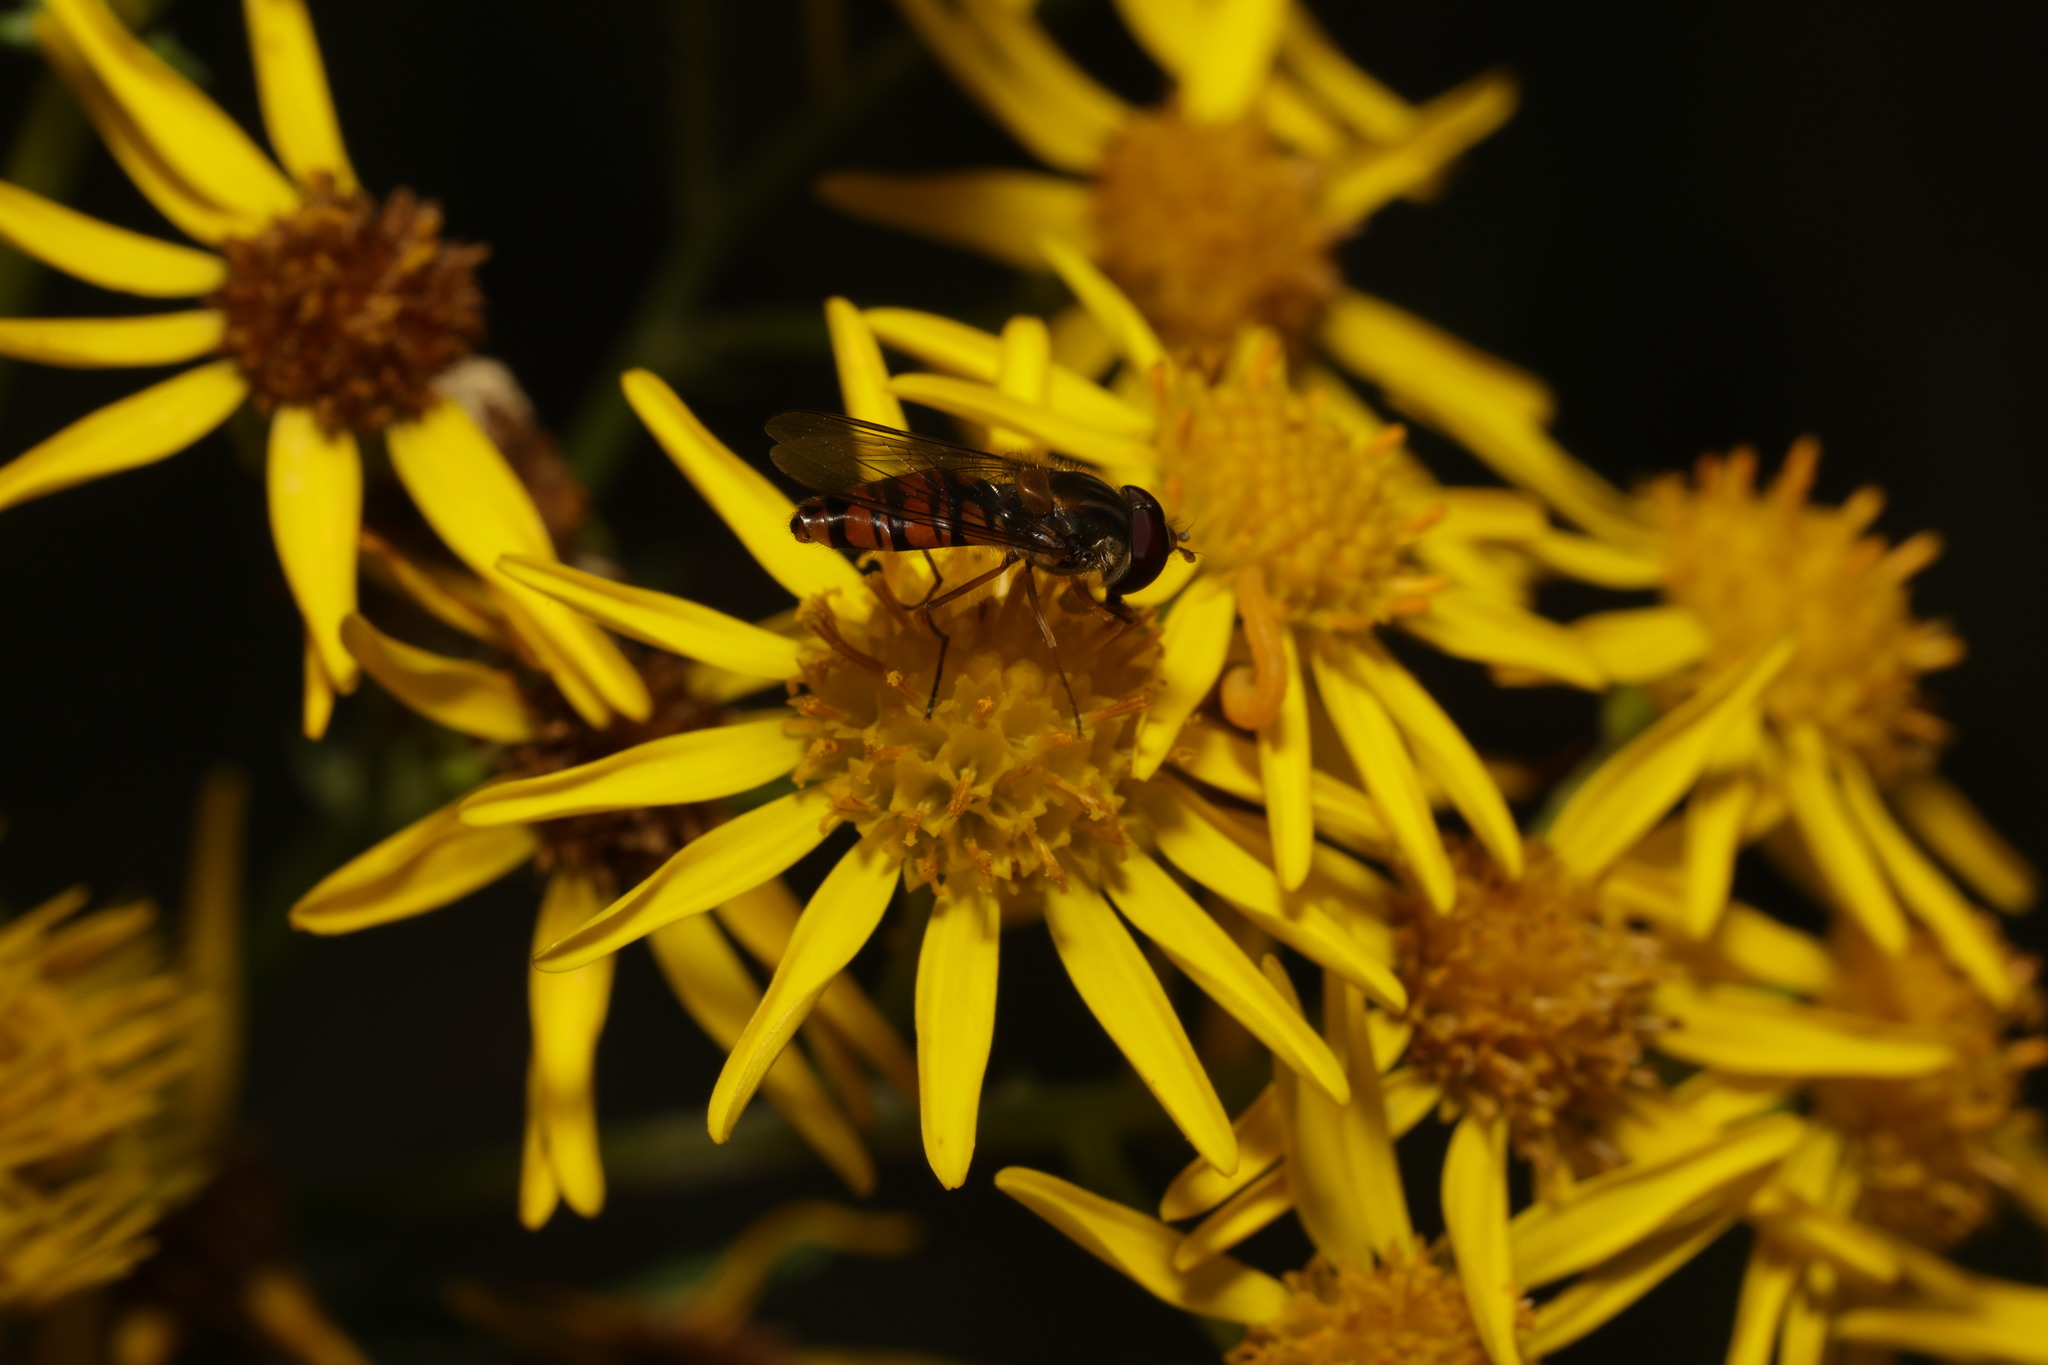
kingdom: Animalia
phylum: Arthropoda
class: Insecta
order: Diptera
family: Syrphidae
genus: Episyrphus
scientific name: Episyrphus balteatus
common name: Marmalade hoverfly
